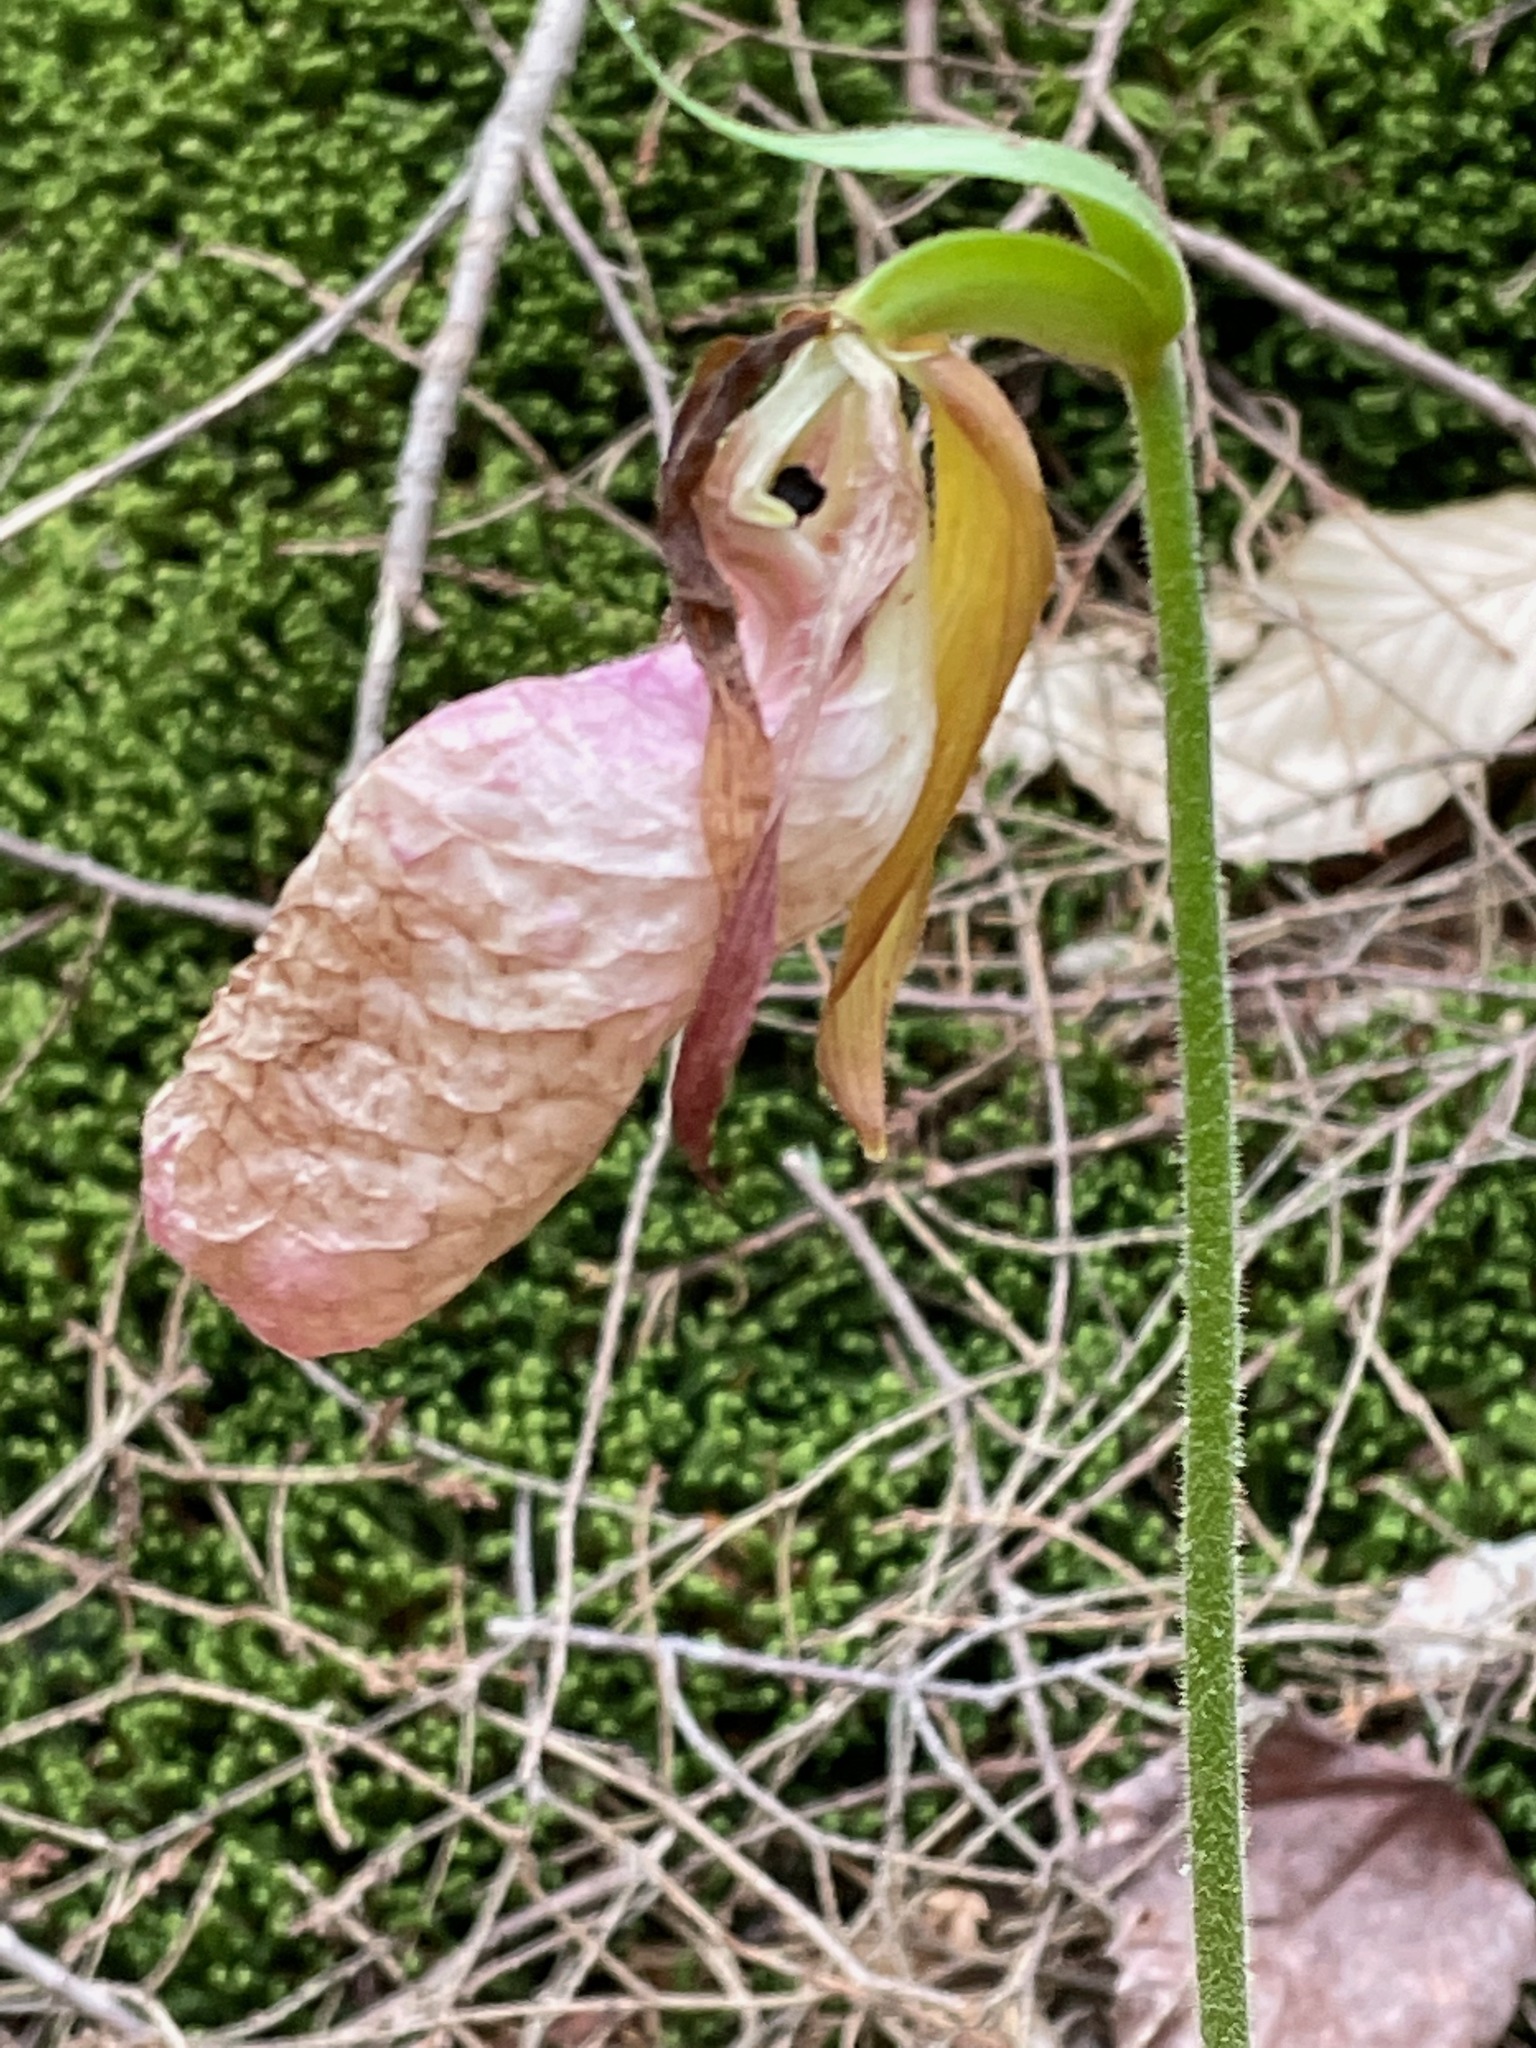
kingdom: Plantae
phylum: Tracheophyta
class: Liliopsida
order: Asparagales
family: Orchidaceae
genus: Cypripedium
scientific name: Cypripedium acaule
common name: Pink lady's-slipper
